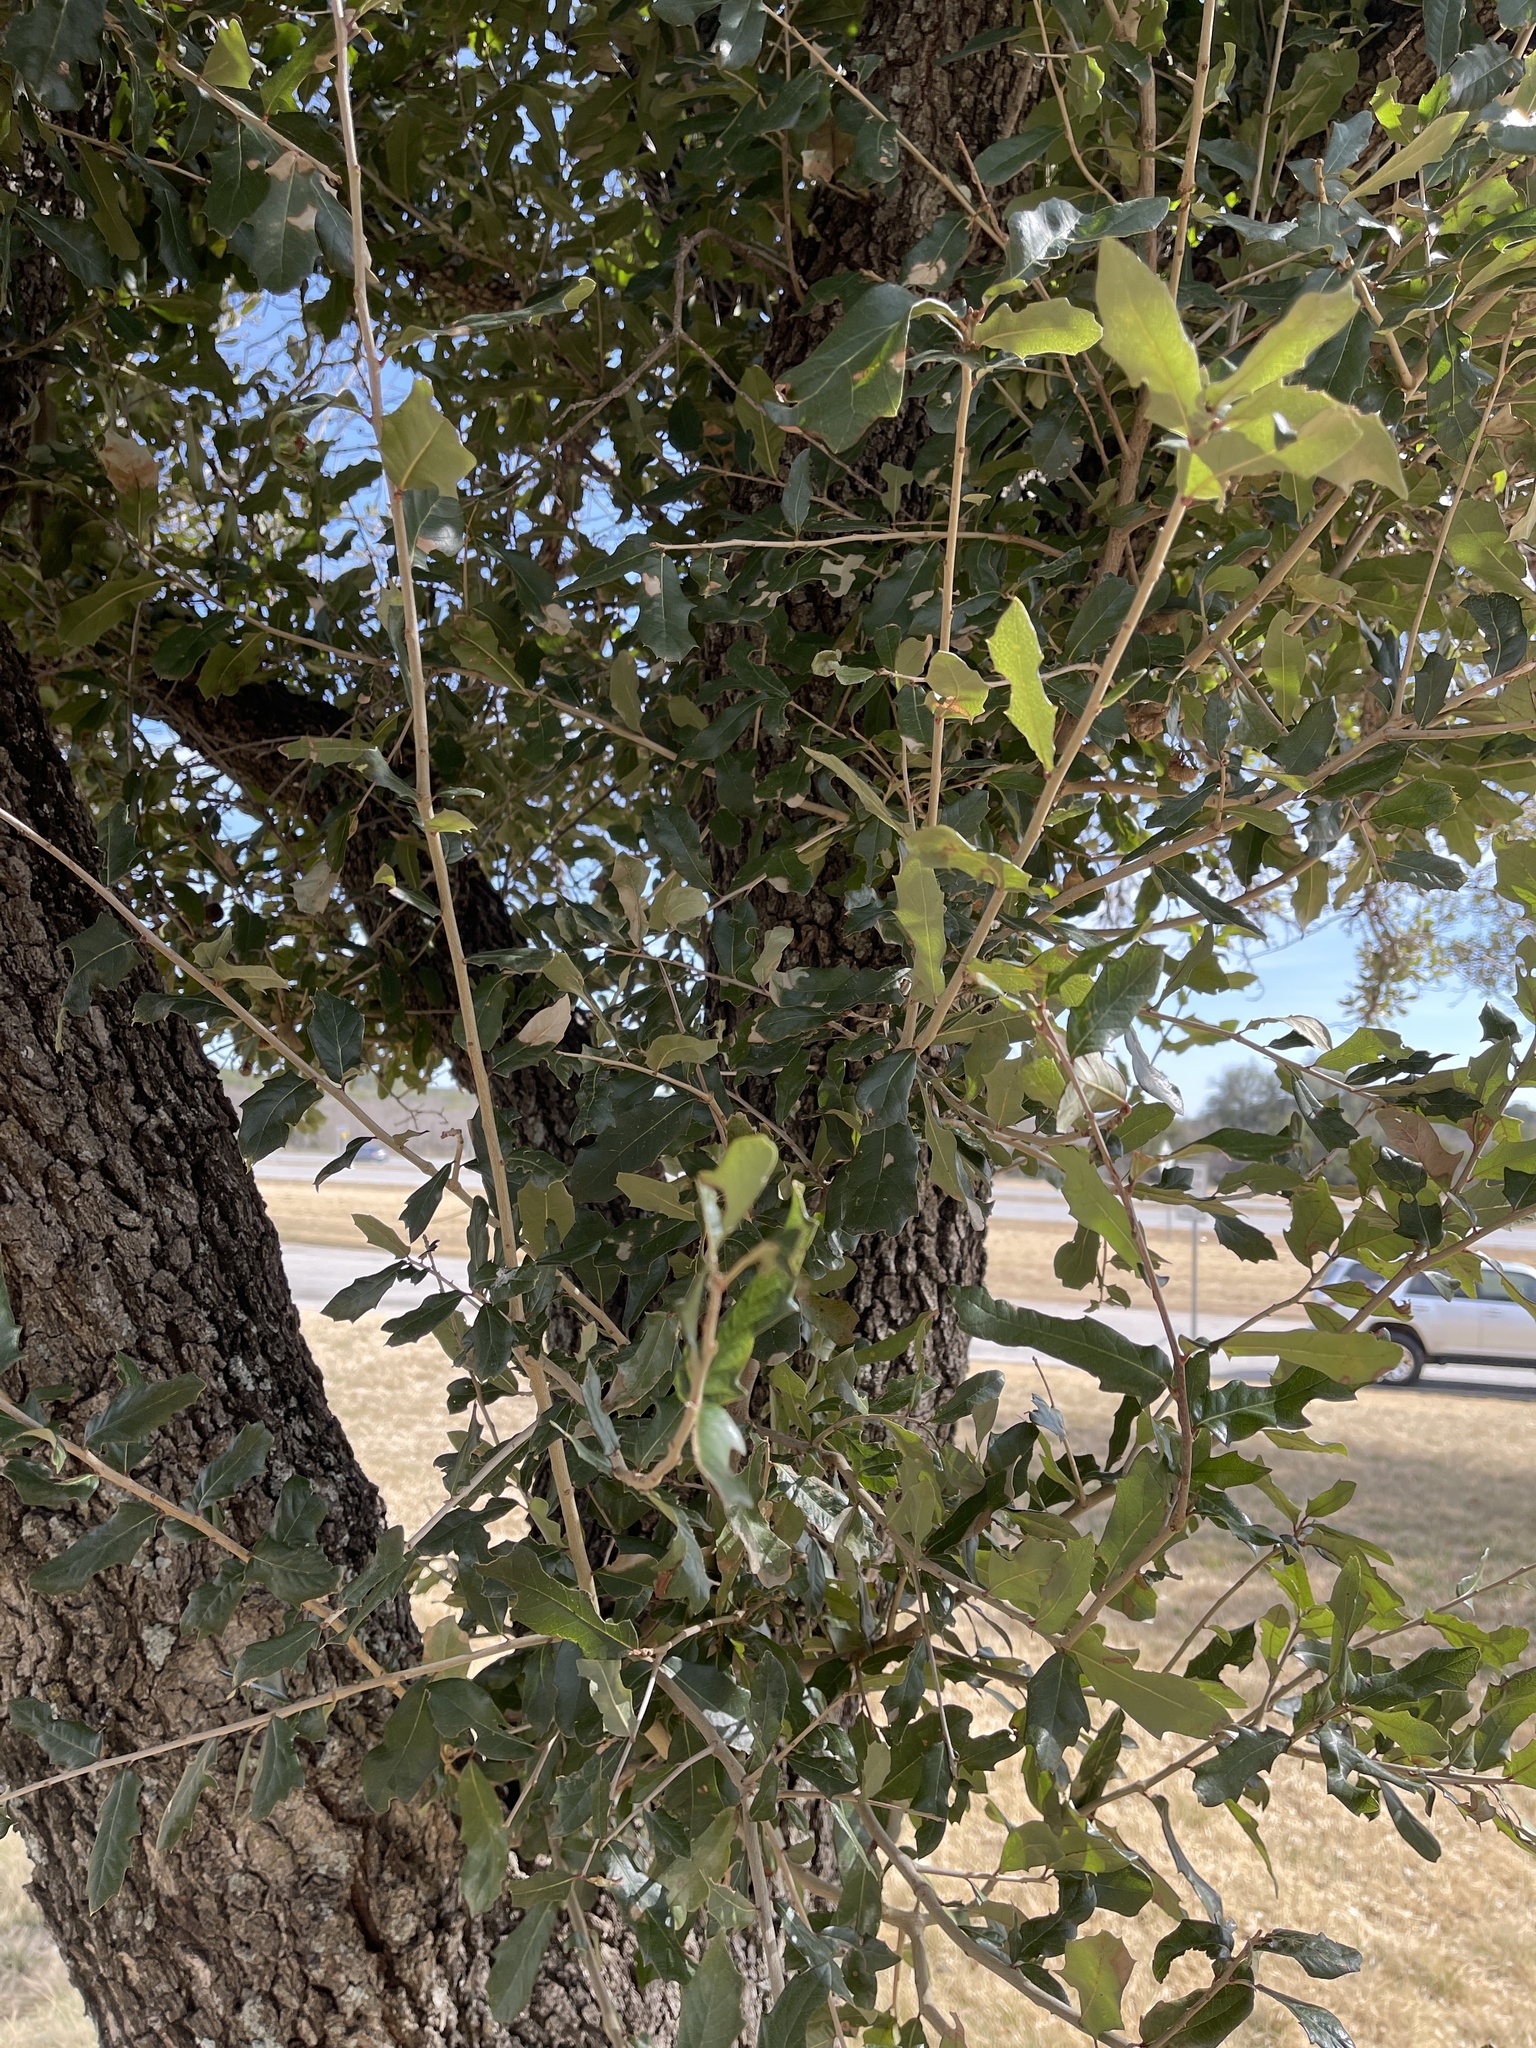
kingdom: Plantae
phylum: Tracheophyta
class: Magnoliopsida
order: Fagales
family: Fagaceae
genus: Quercus
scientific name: Quercus fusiformis
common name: Texas live oak
